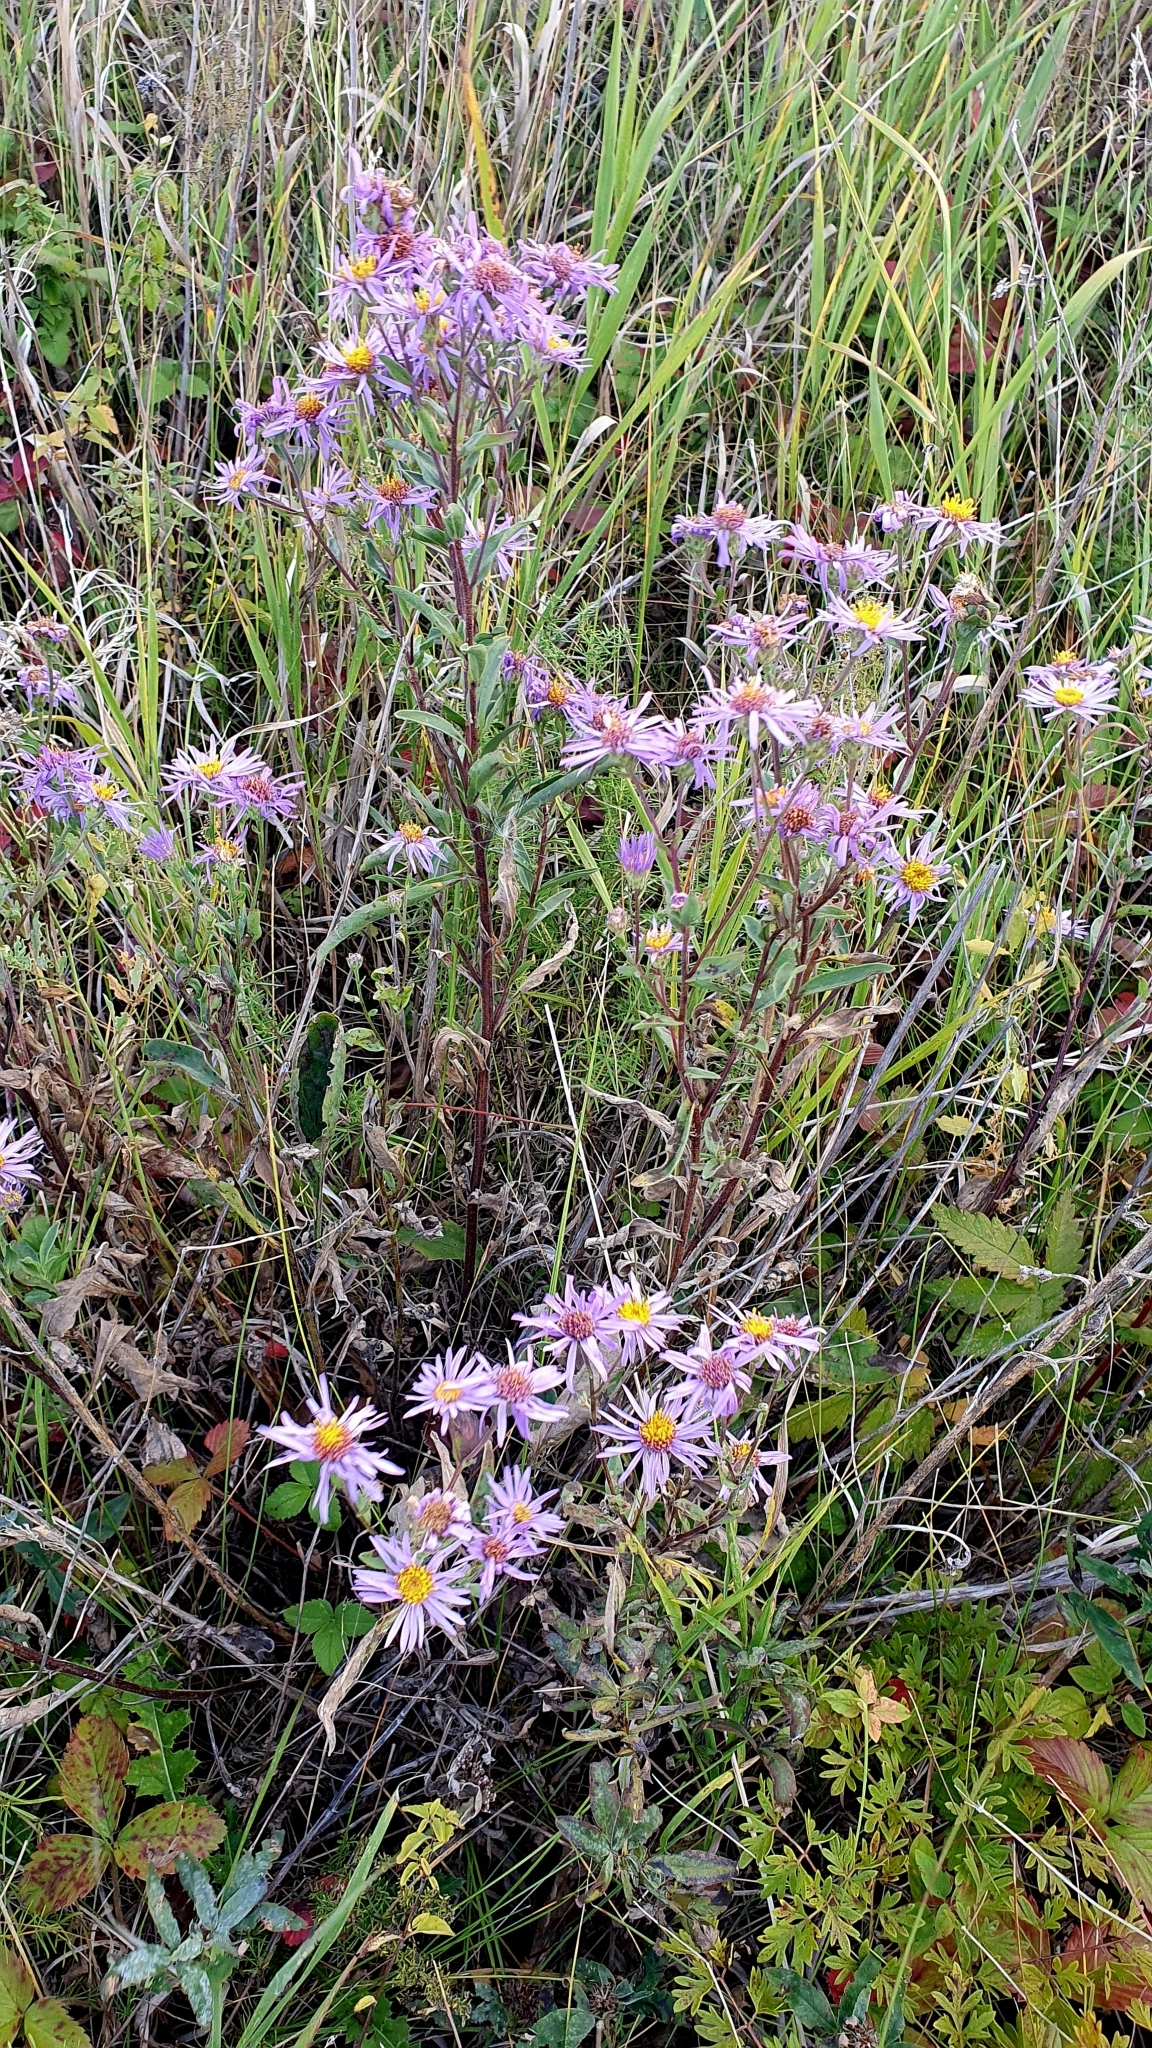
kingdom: Plantae
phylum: Tracheophyta
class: Magnoliopsida
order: Asterales
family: Asteraceae
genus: Aster
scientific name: Aster amellus
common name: European michaelmas daisy
